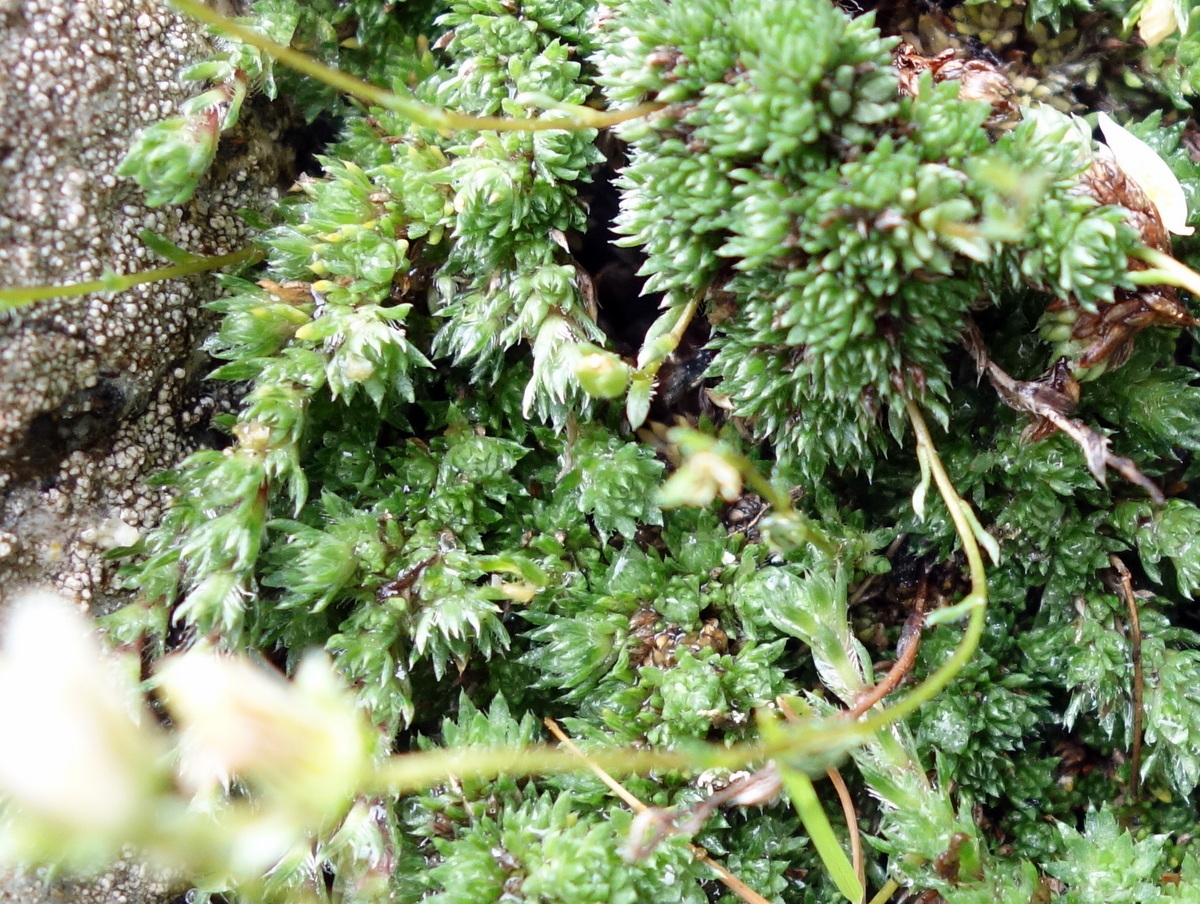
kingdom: Plantae
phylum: Tracheophyta
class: Magnoliopsida
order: Saxifragales
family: Saxifragaceae
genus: Saxifraga
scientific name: Saxifraga bryoides
